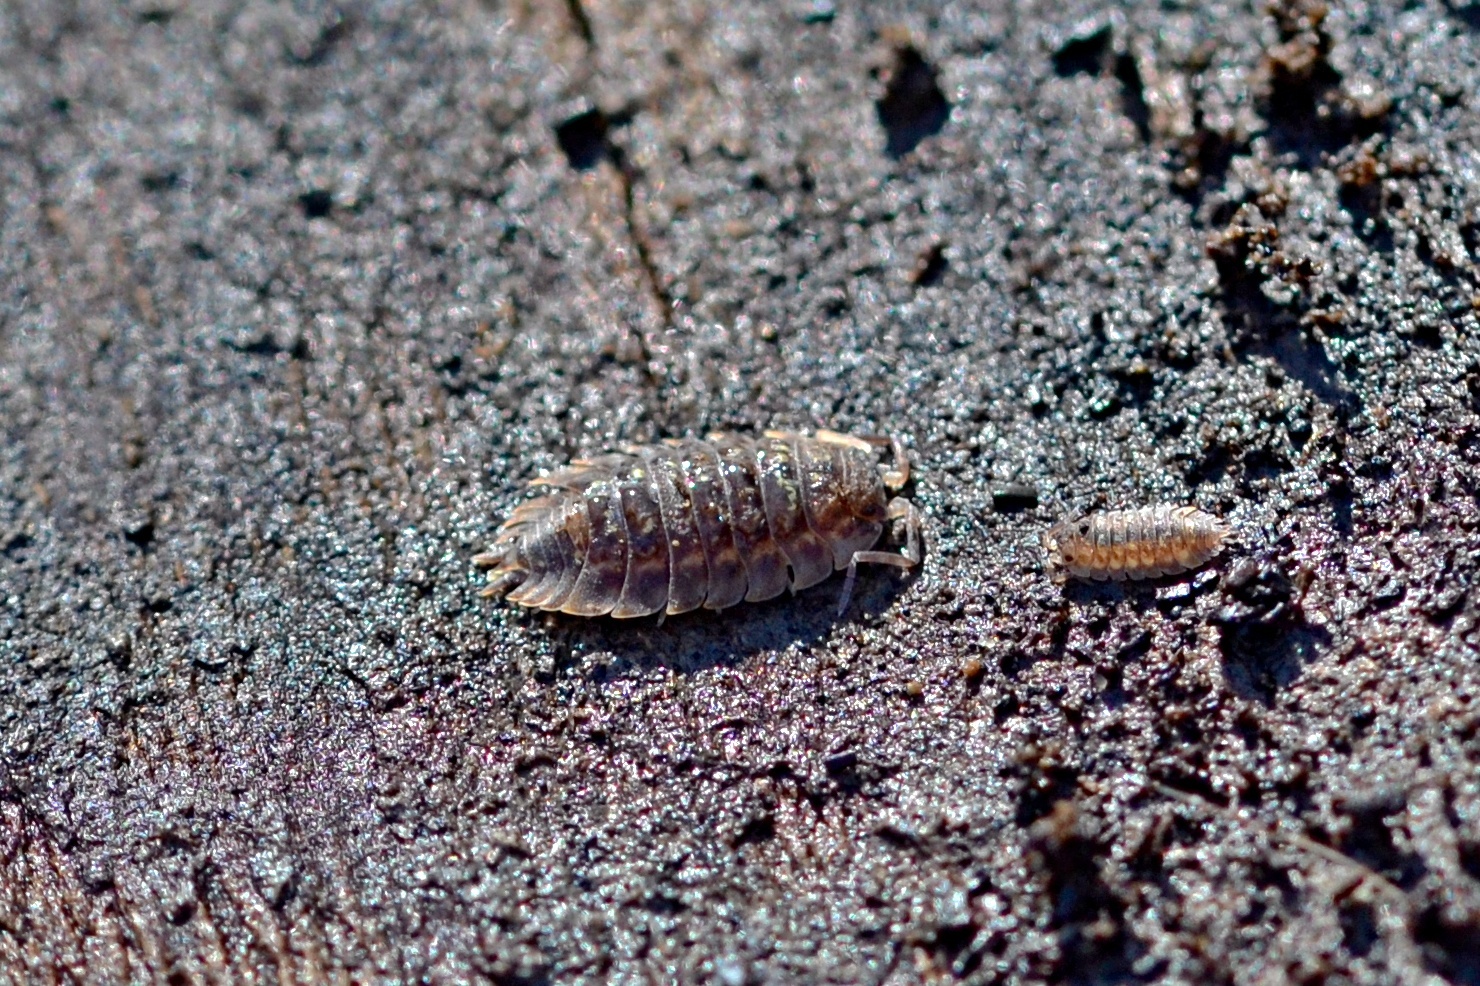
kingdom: Animalia
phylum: Arthropoda
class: Malacostraca
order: Isopoda
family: Oniscidae
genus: Oniscus
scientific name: Oniscus asellus
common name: Common shiny woodlouse
